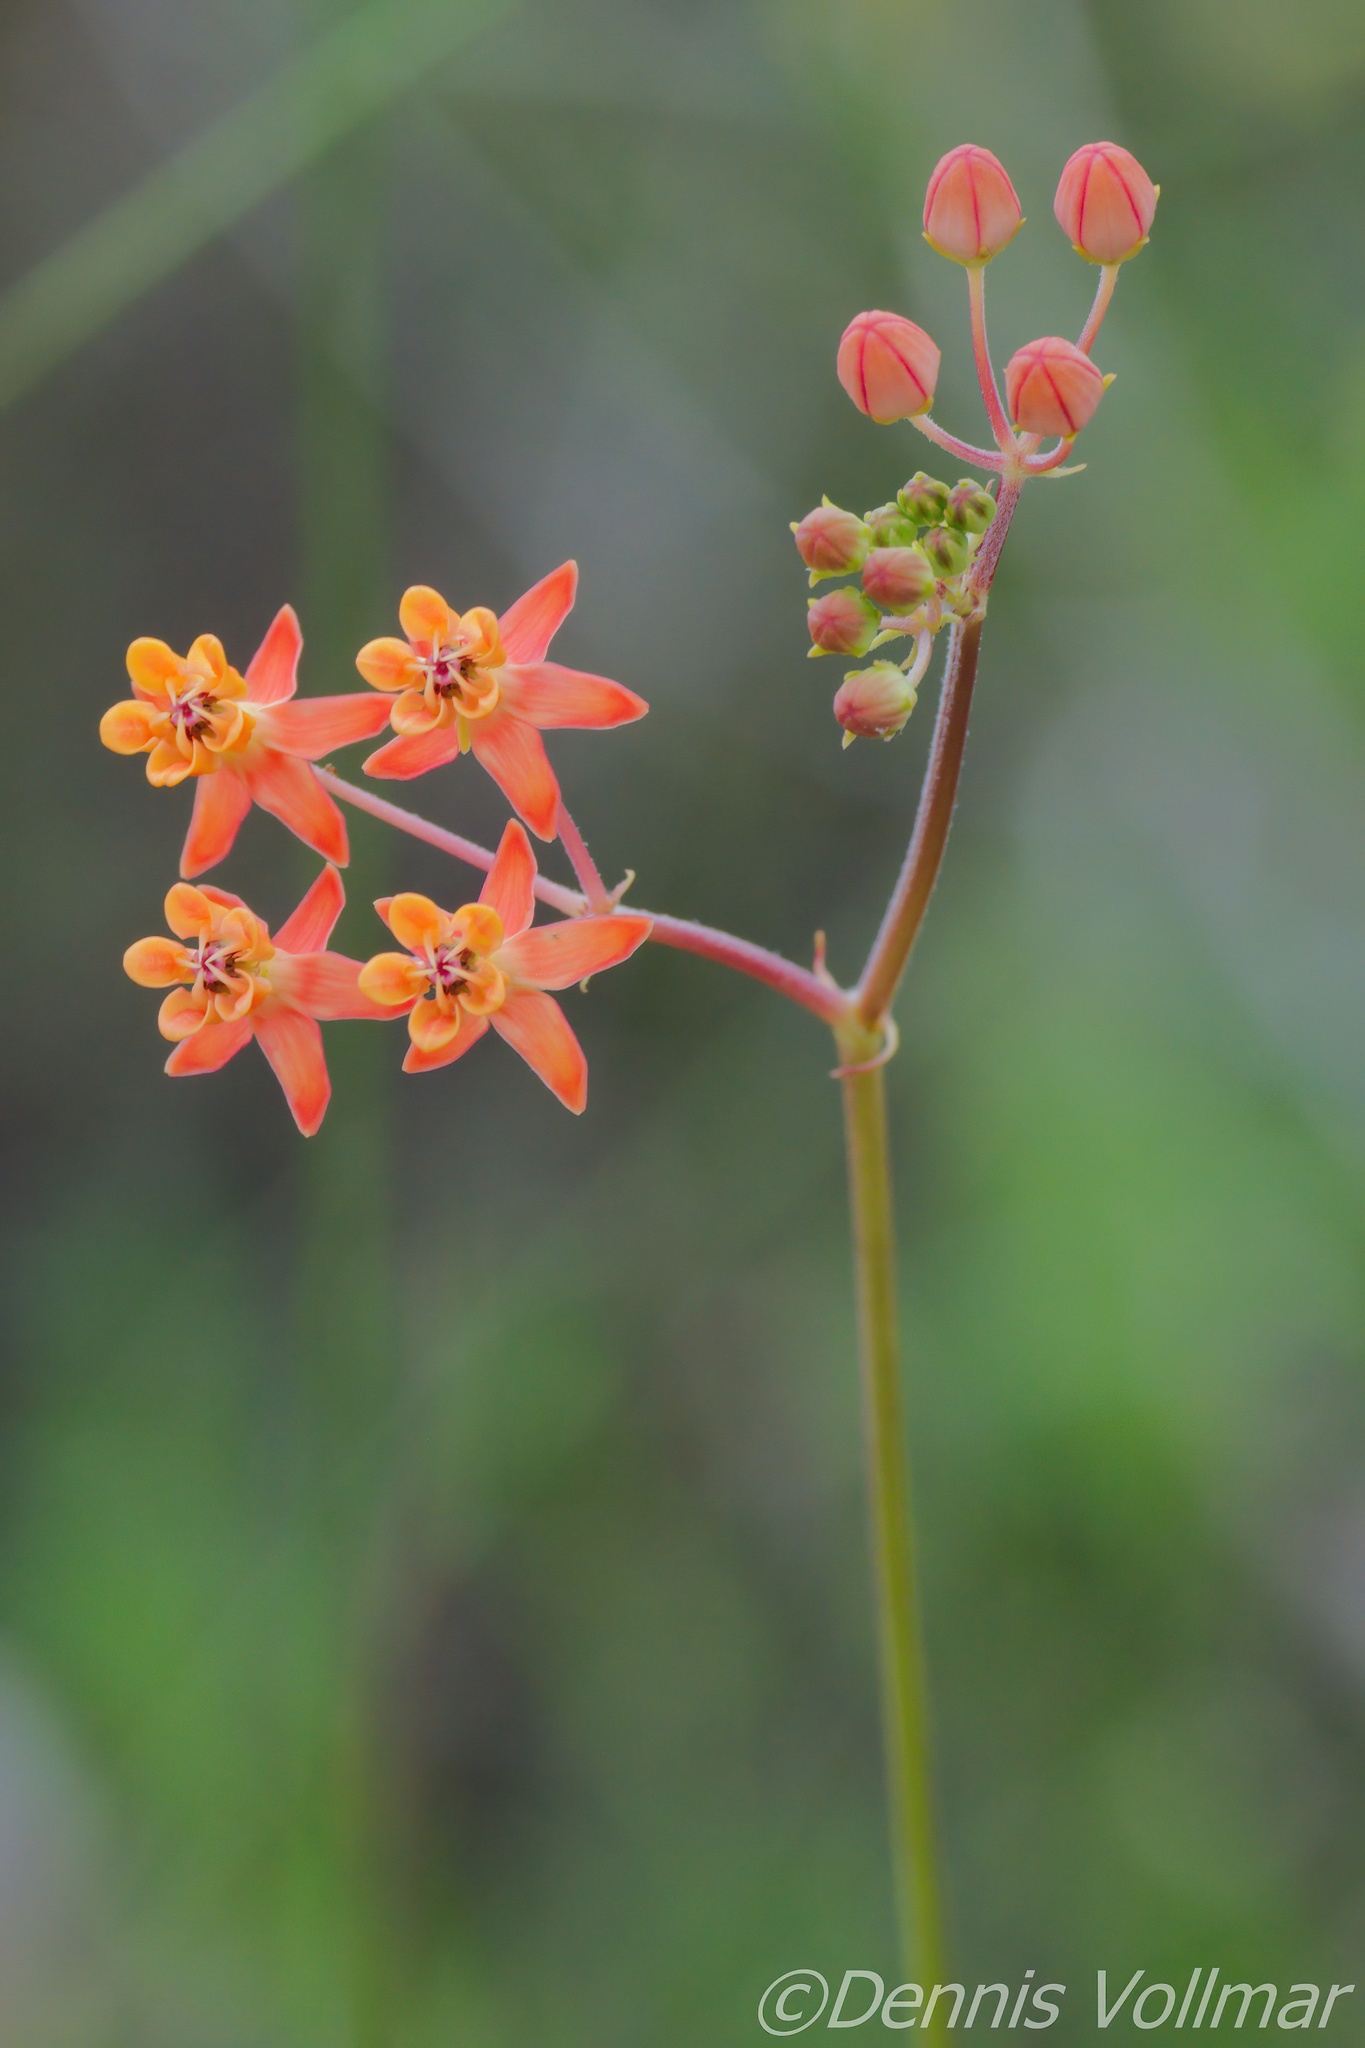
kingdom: Plantae
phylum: Tracheophyta
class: Magnoliopsida
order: Gentianales
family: Apocynaceae
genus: Asclepias
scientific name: Asclepias lanceolata
